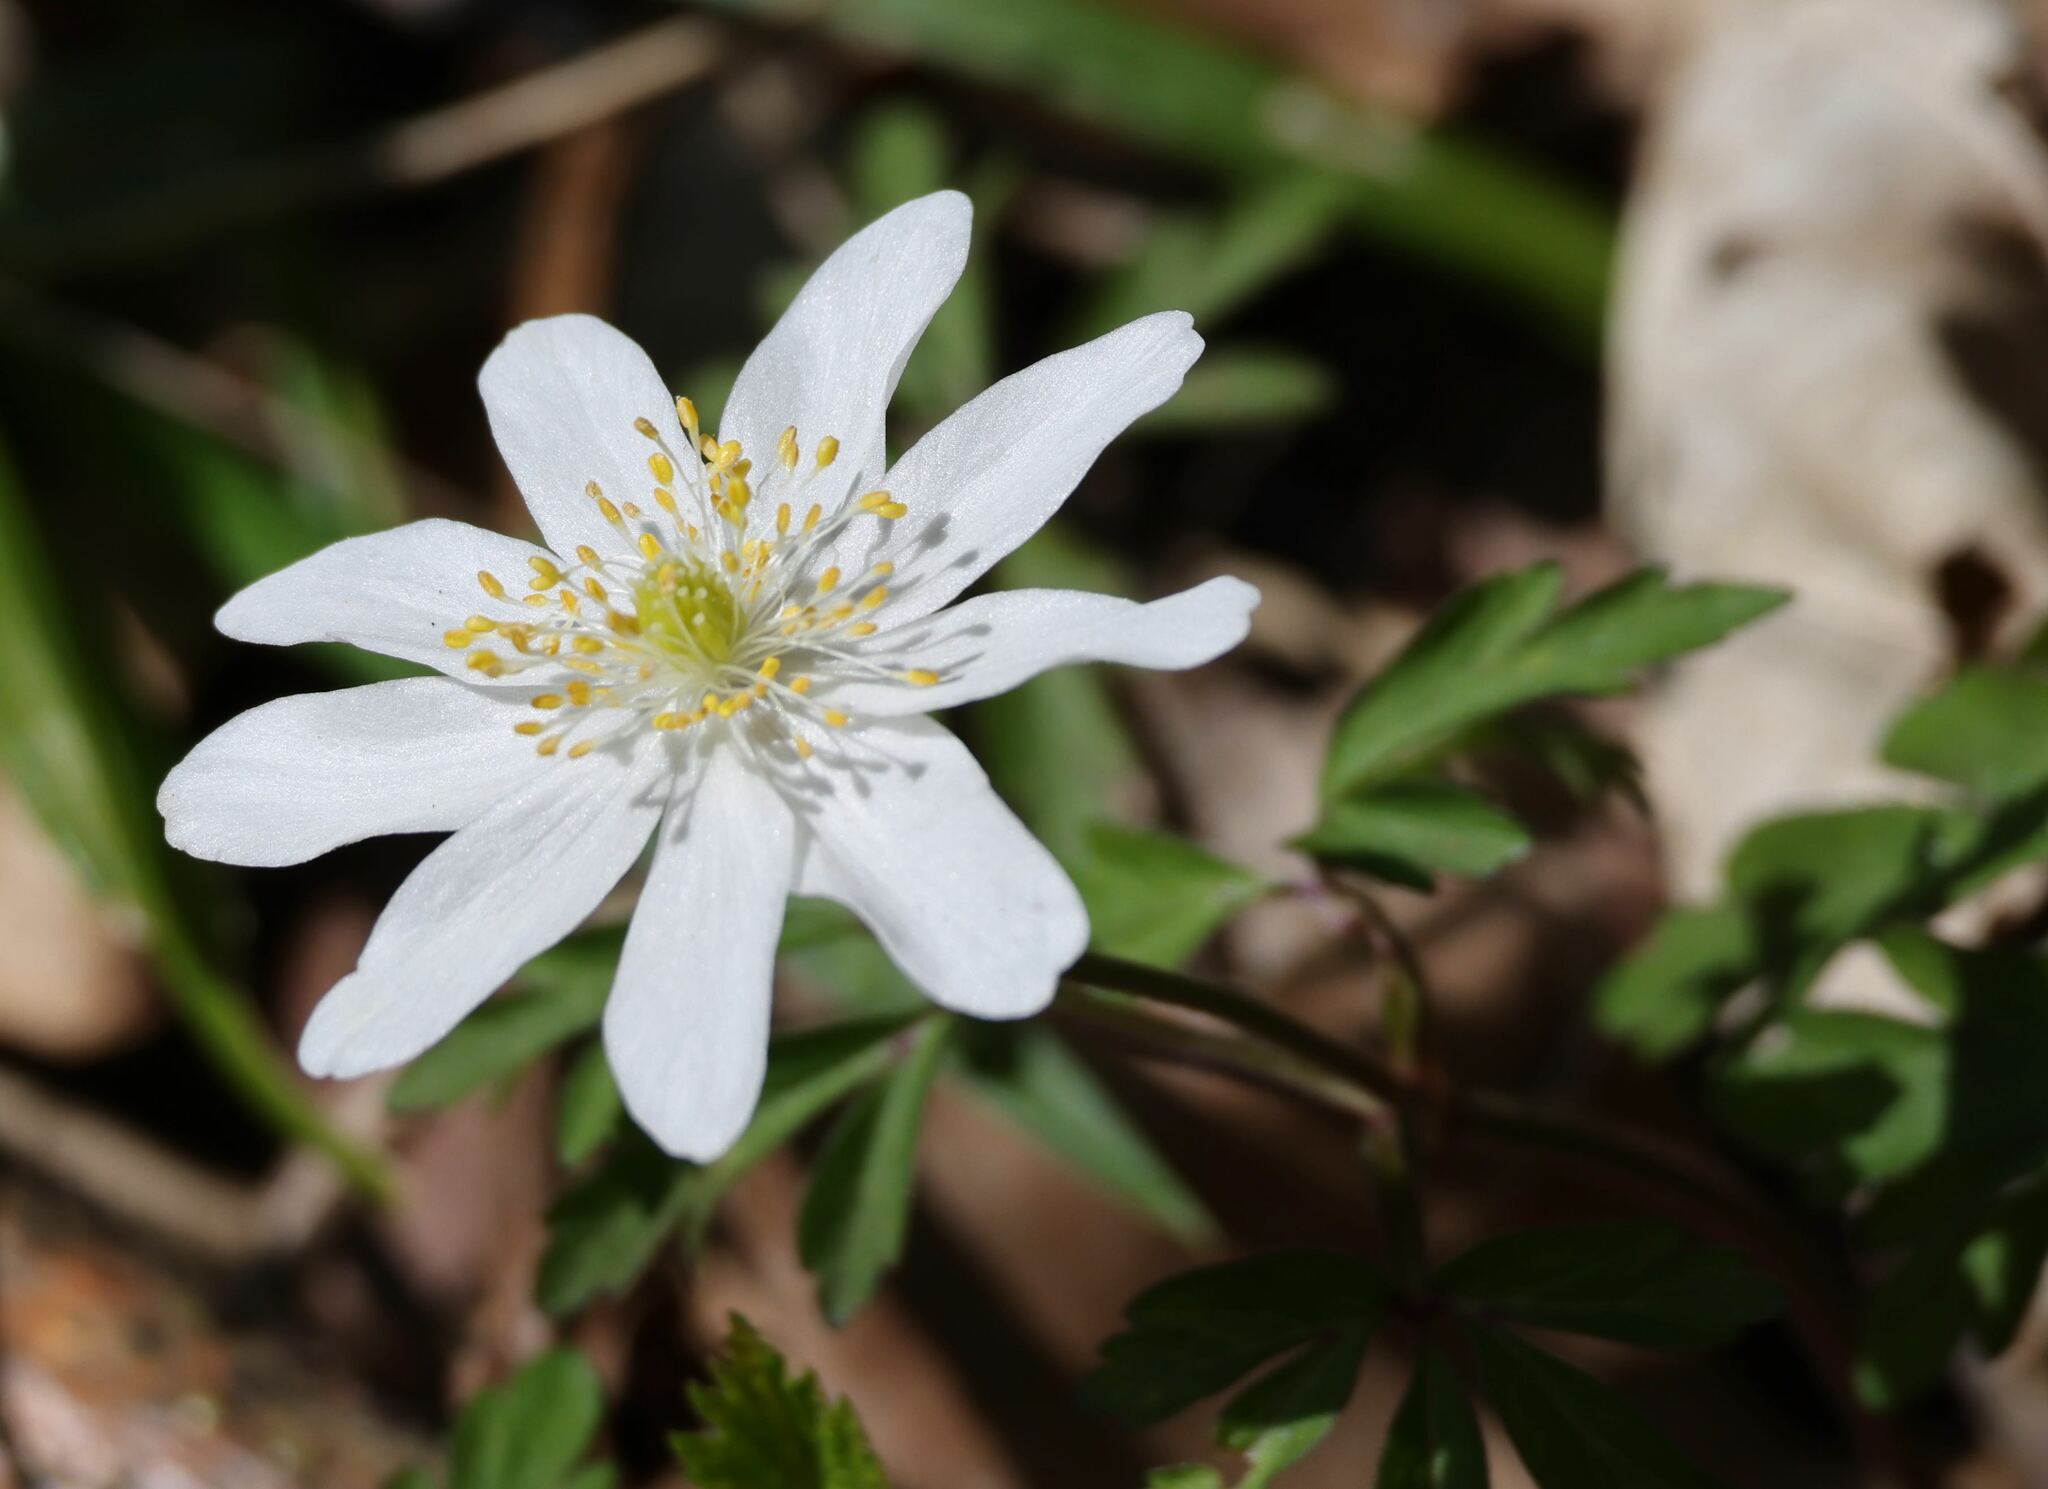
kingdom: Plantae
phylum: Tracheophyta
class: Magnoliopsida
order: Ranunculales
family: Ranunculaceae
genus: Anemone
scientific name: Anemone nemorosa
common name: Wood anemone
